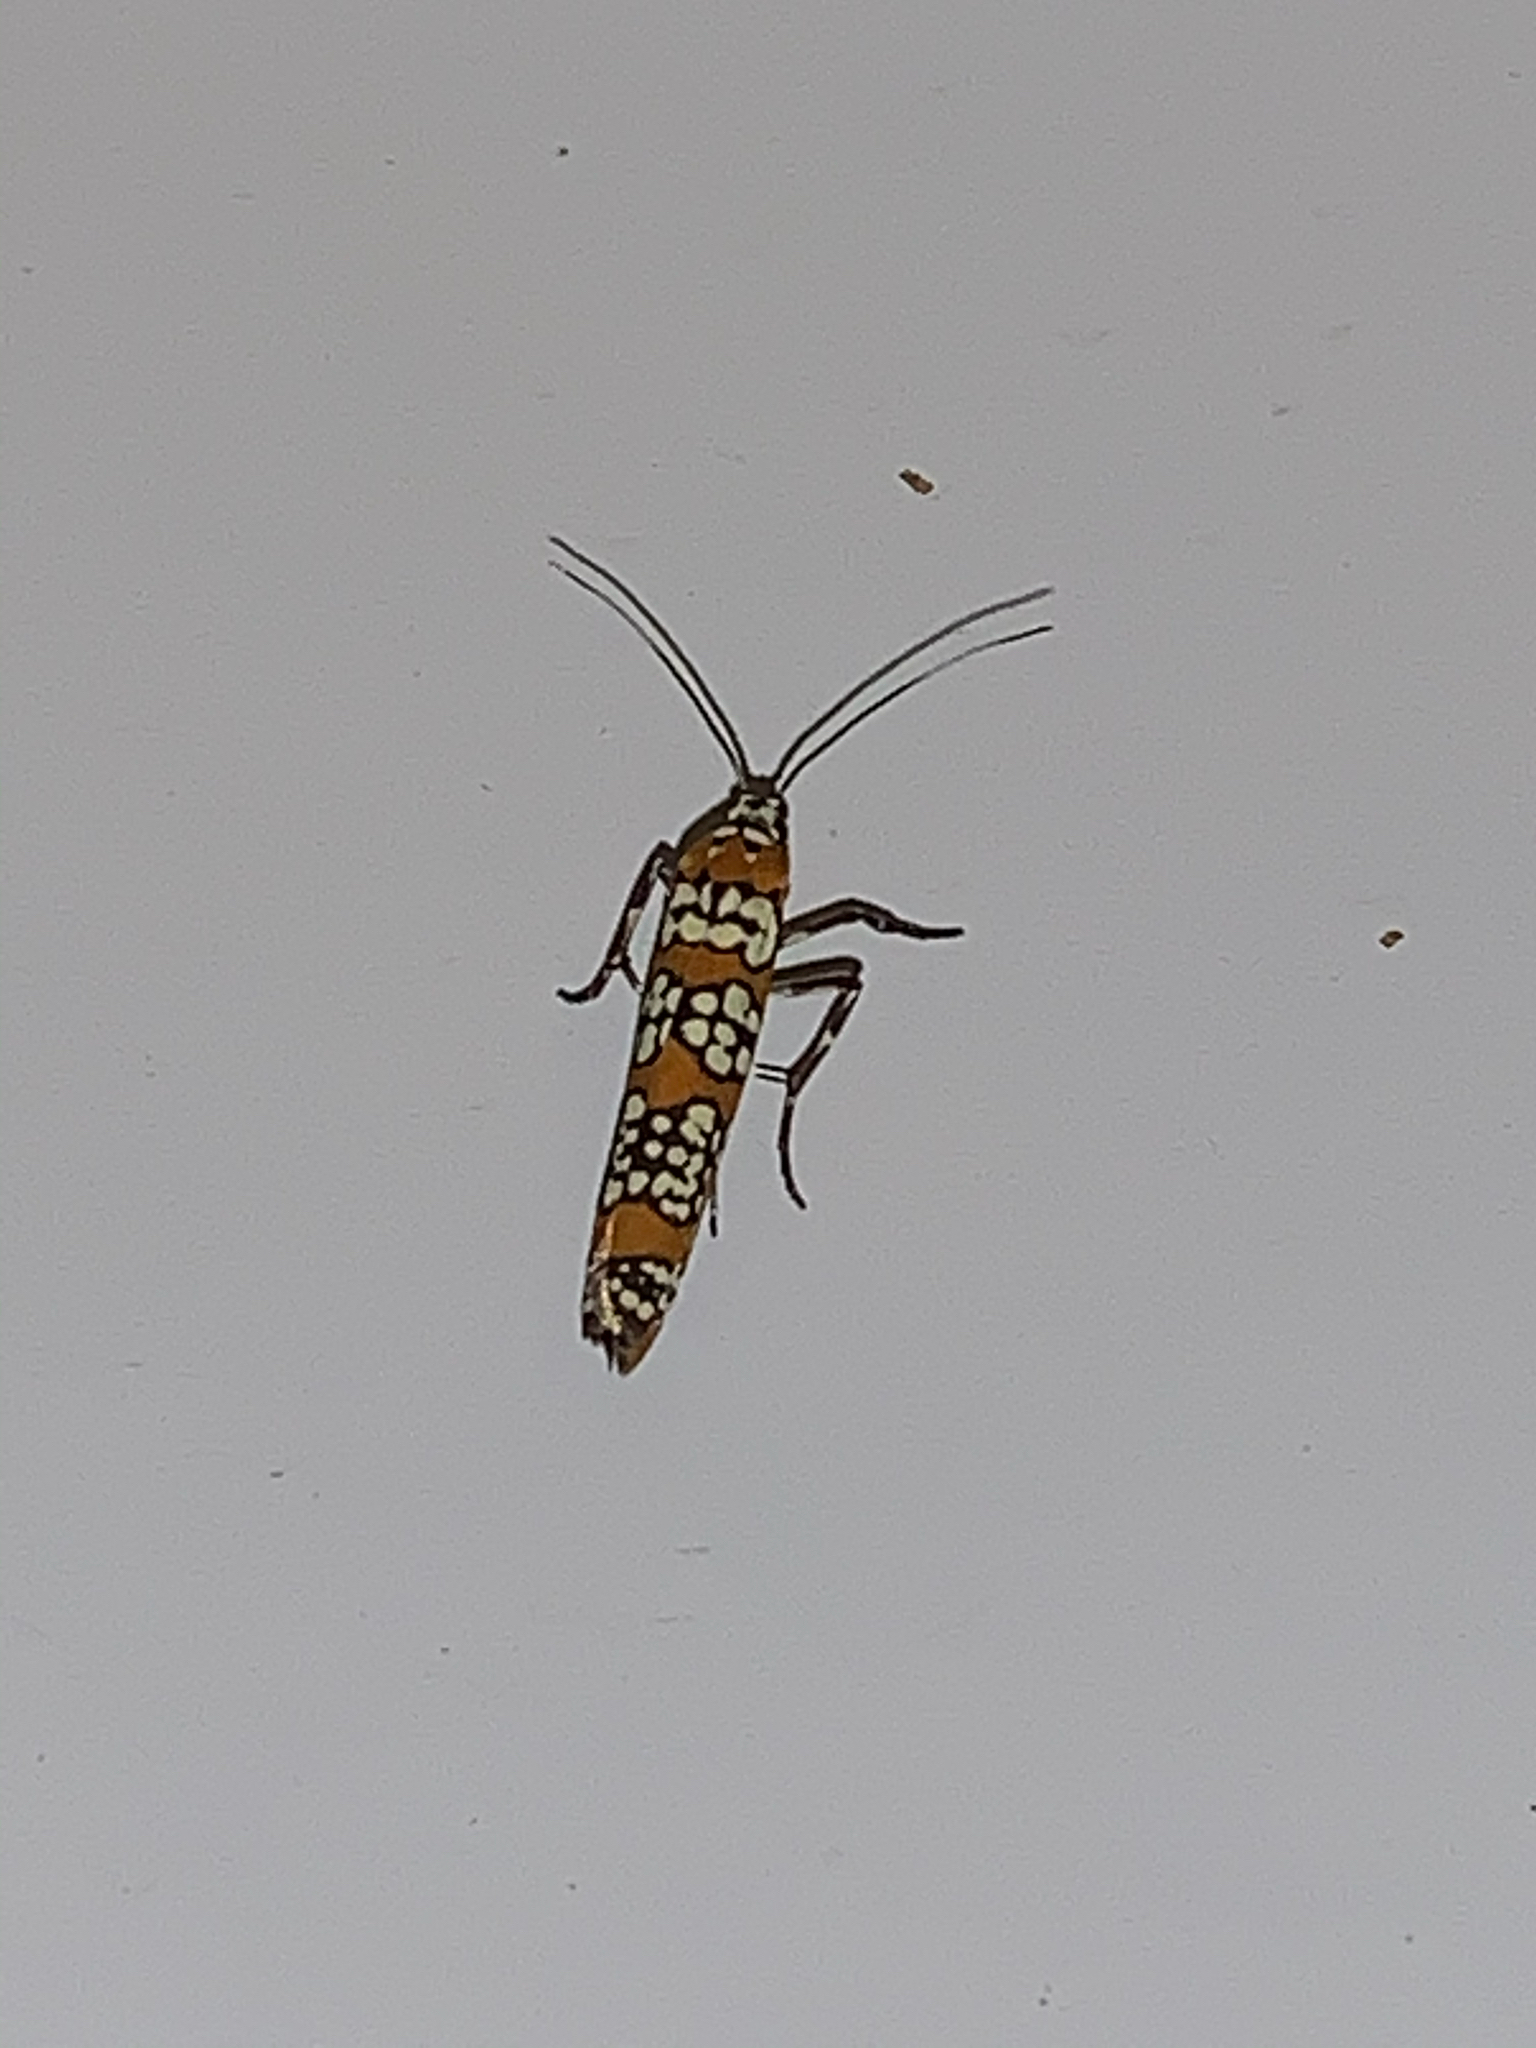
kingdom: Animalia
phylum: Arthropoda
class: Insecta
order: Lepidoptera
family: Attevidae
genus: Atteva
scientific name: Atteva punctella
